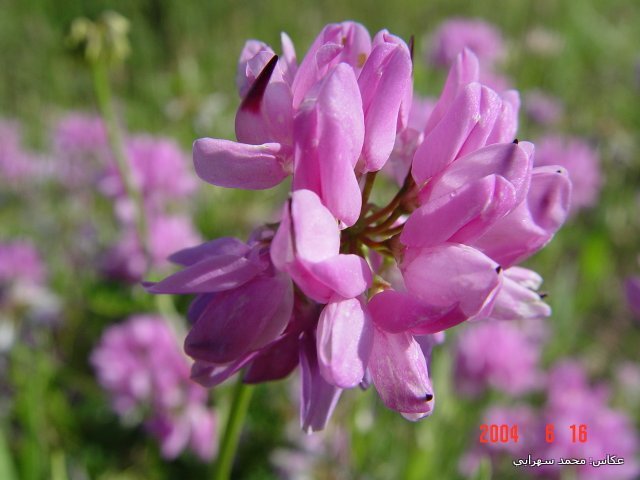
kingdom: Plantae
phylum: Tracheophyta
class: Magnoliopsida
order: Fabales
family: Fabaceae
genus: Coronilla
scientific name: Coronilla varia
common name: Crownvetch
